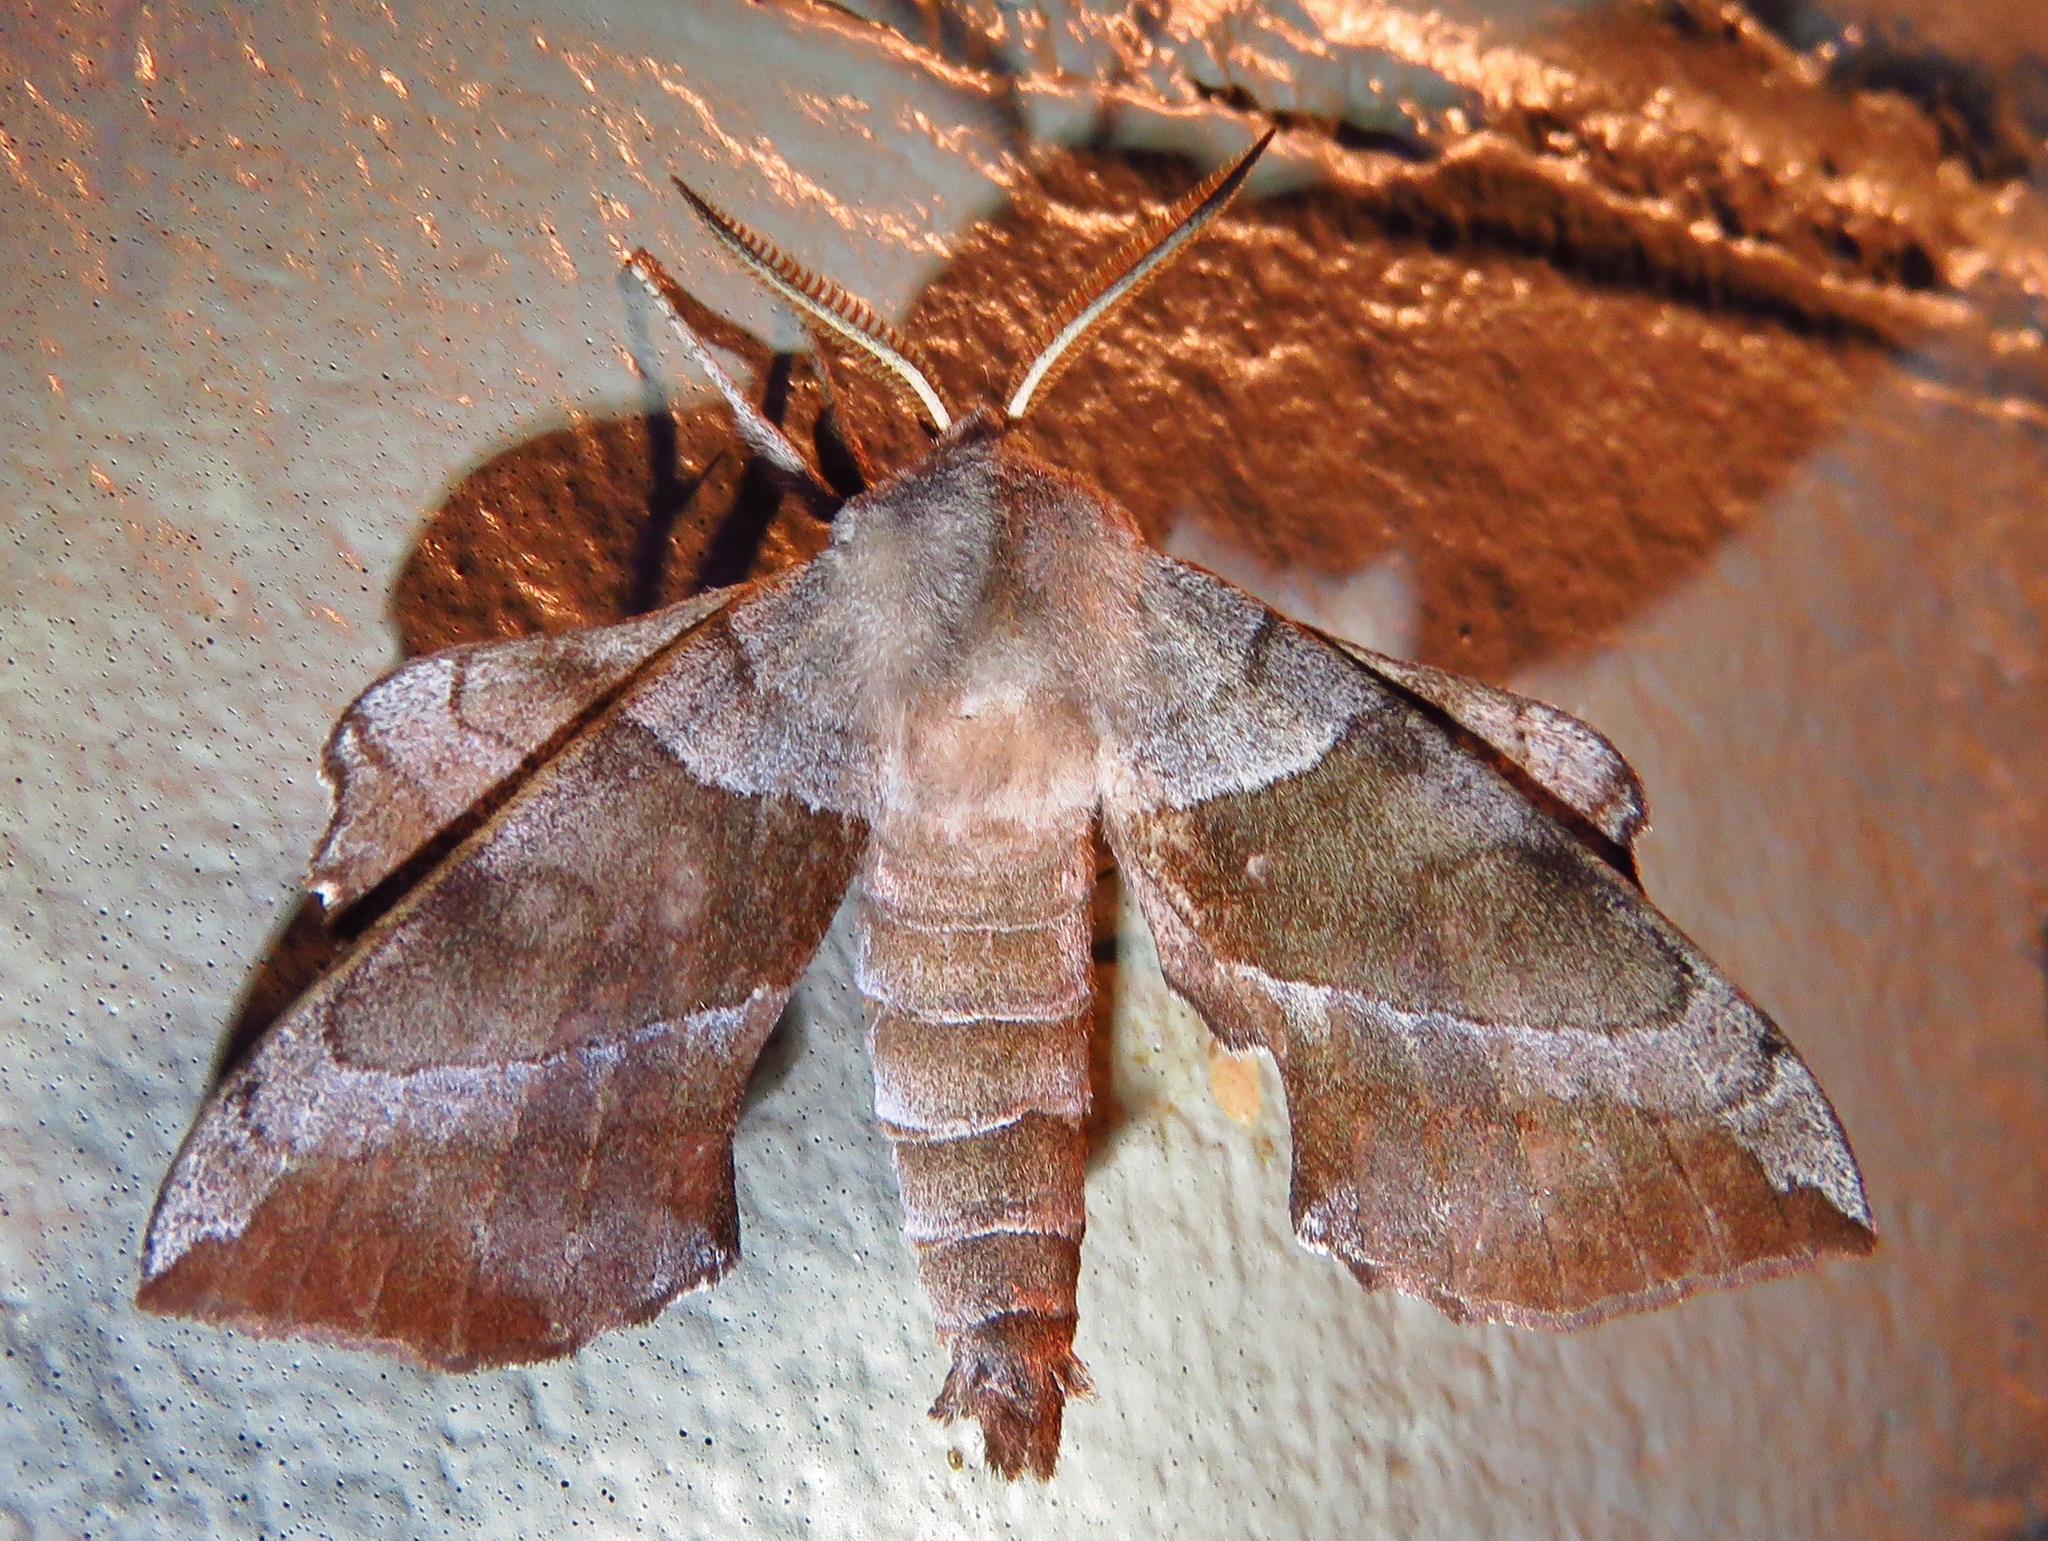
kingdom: Animalia
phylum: Arthropoda
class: Insecta
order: Lepidoptera
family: Sphingidae
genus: Amorpha
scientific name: Amorpha juglandis
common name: Walnut sphinx
